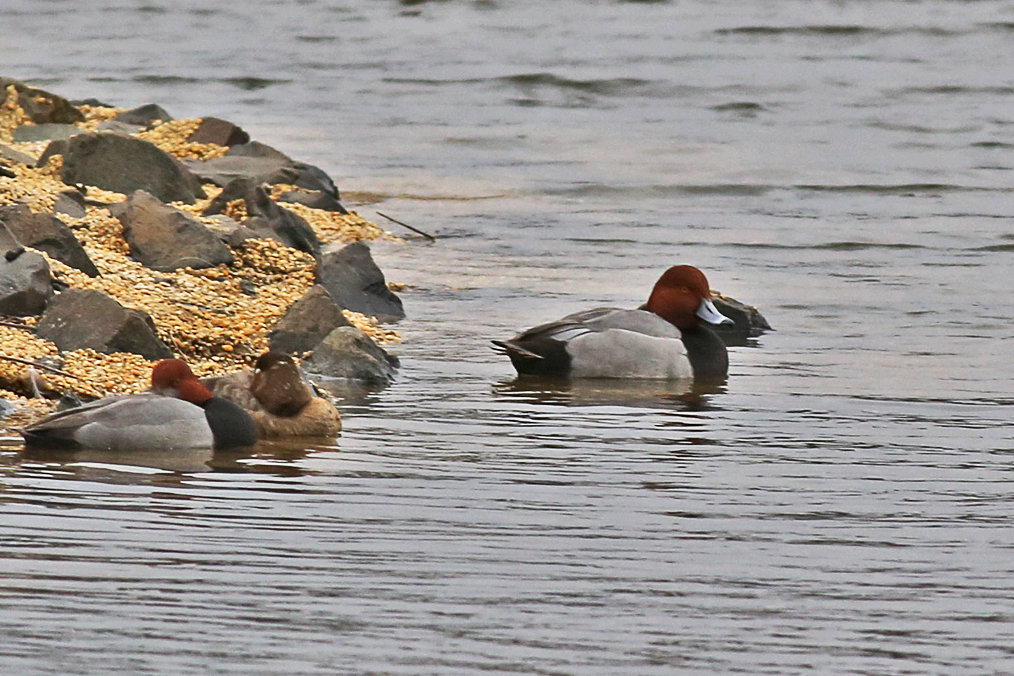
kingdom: Animalia
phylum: Chordata
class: Aves
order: Anseriformes
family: Anatidae
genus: Aythya
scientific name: Aythya americana
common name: Redhead
